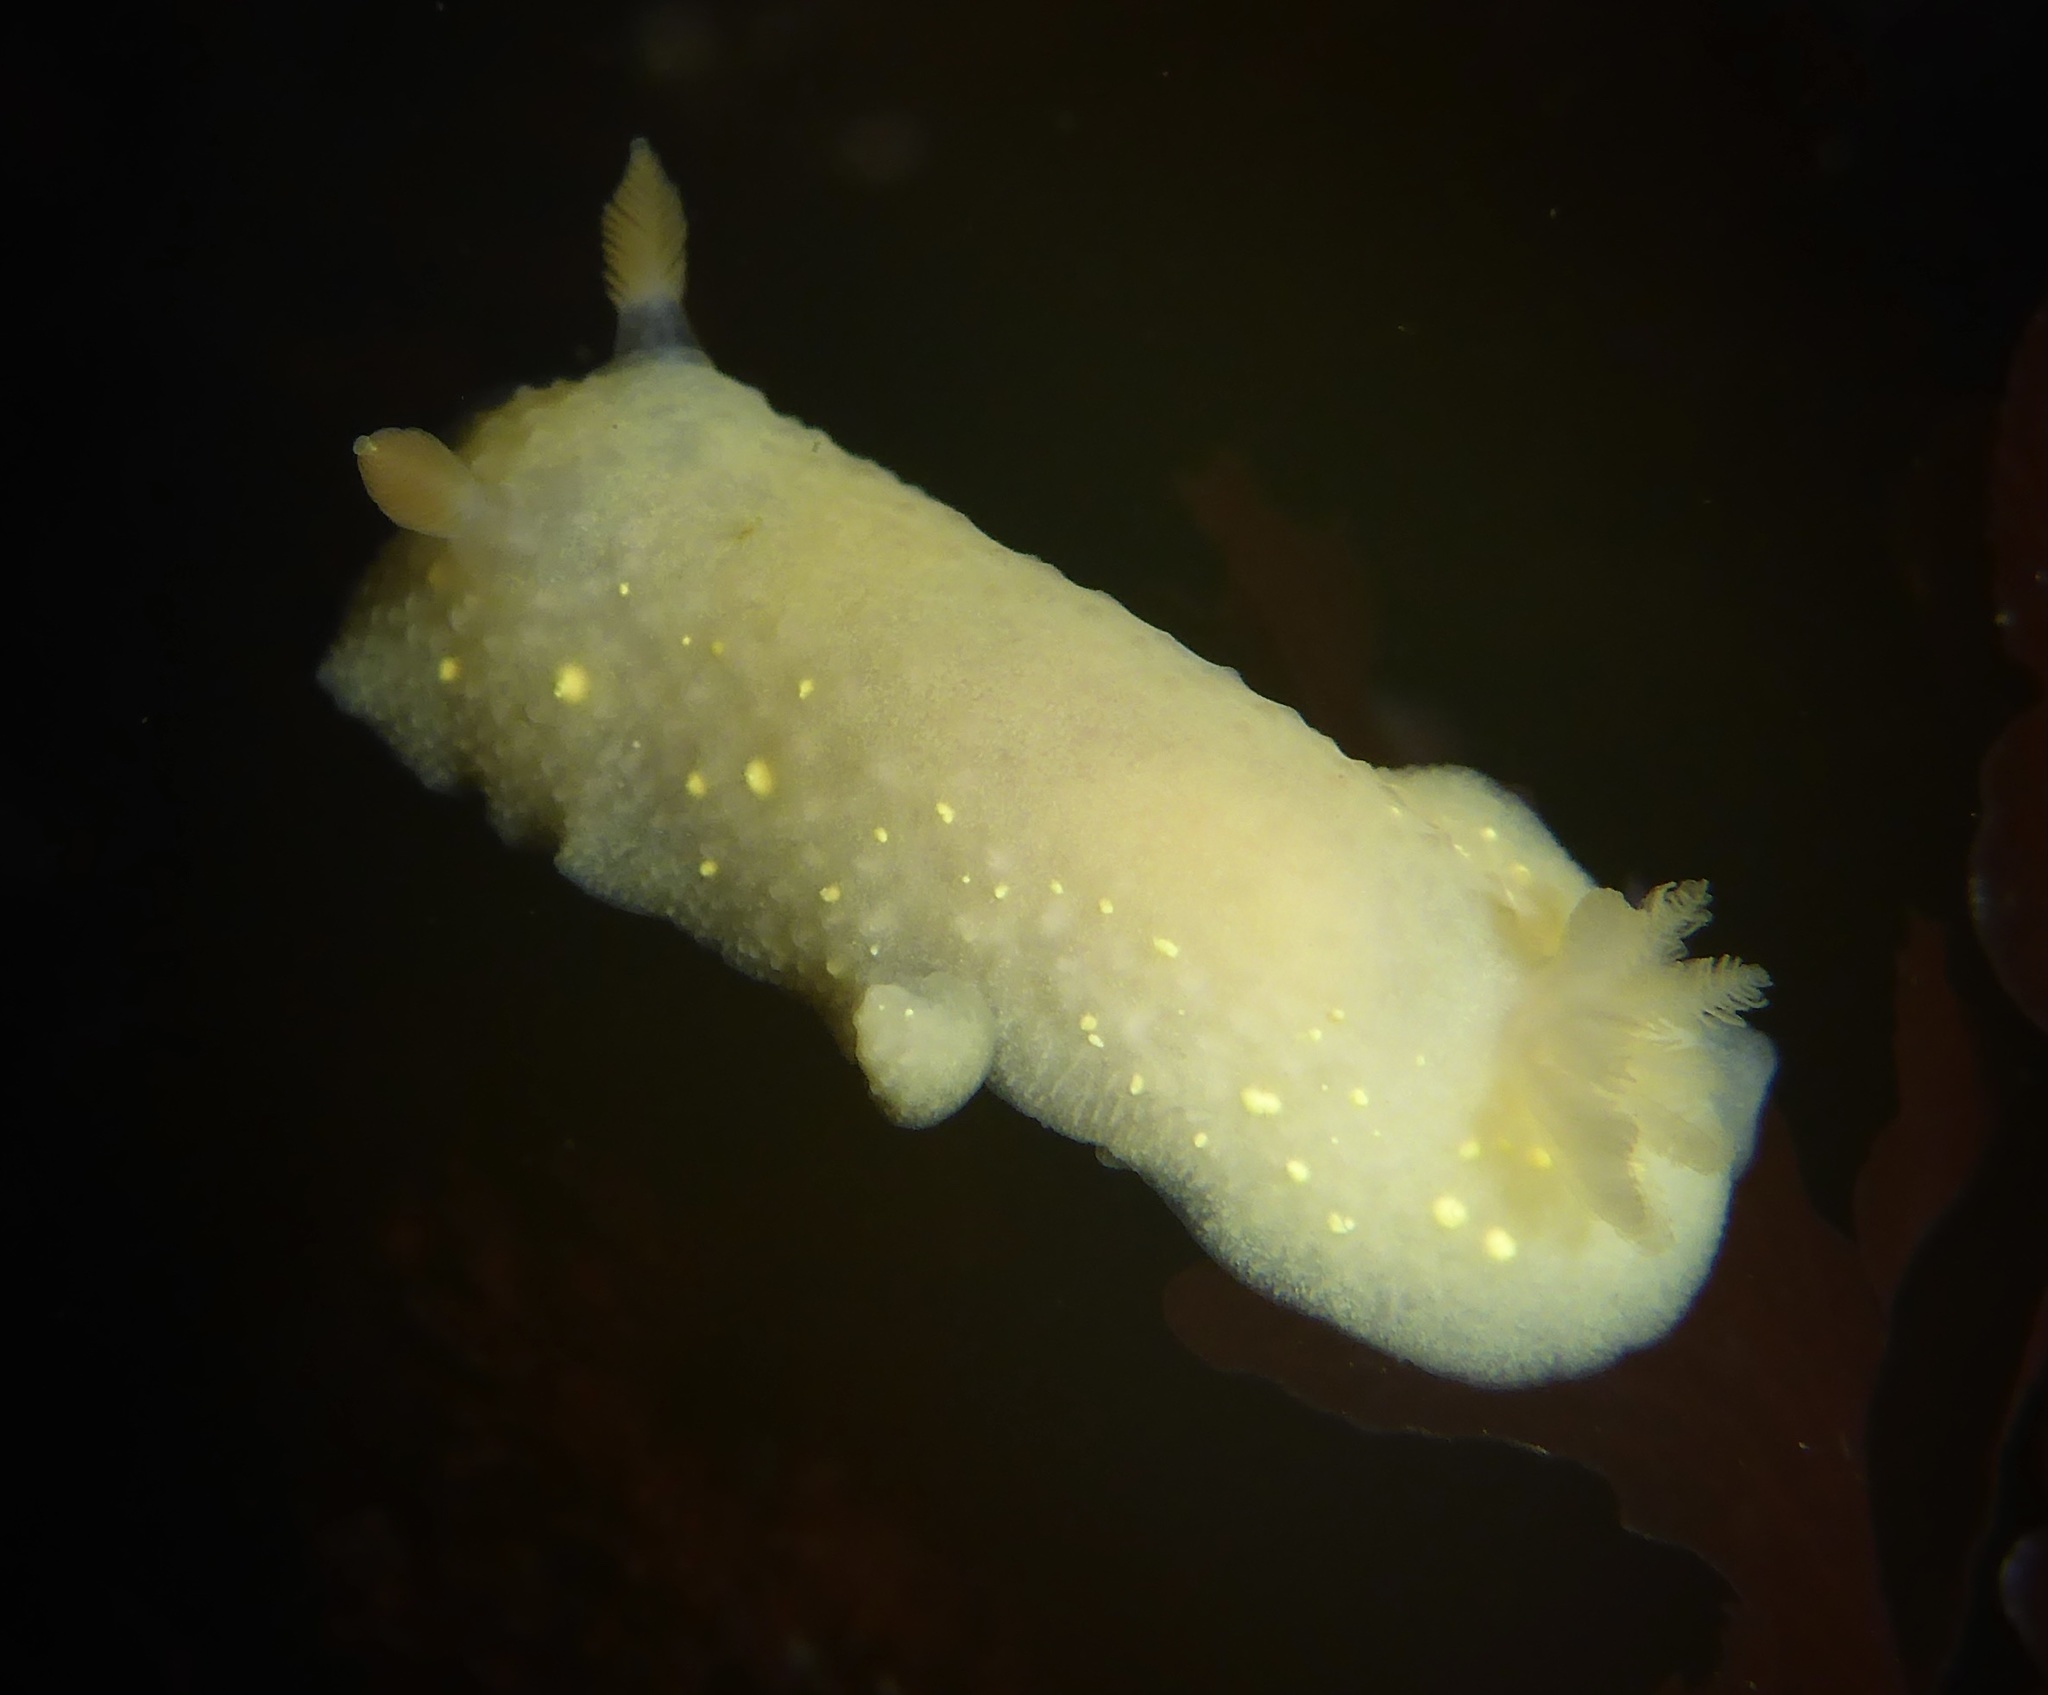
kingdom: Animalia
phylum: Mollusca
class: Gastropoda
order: Nudibranchia
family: Cadlinidae
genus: Cadlina
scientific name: Cadlina modesta
